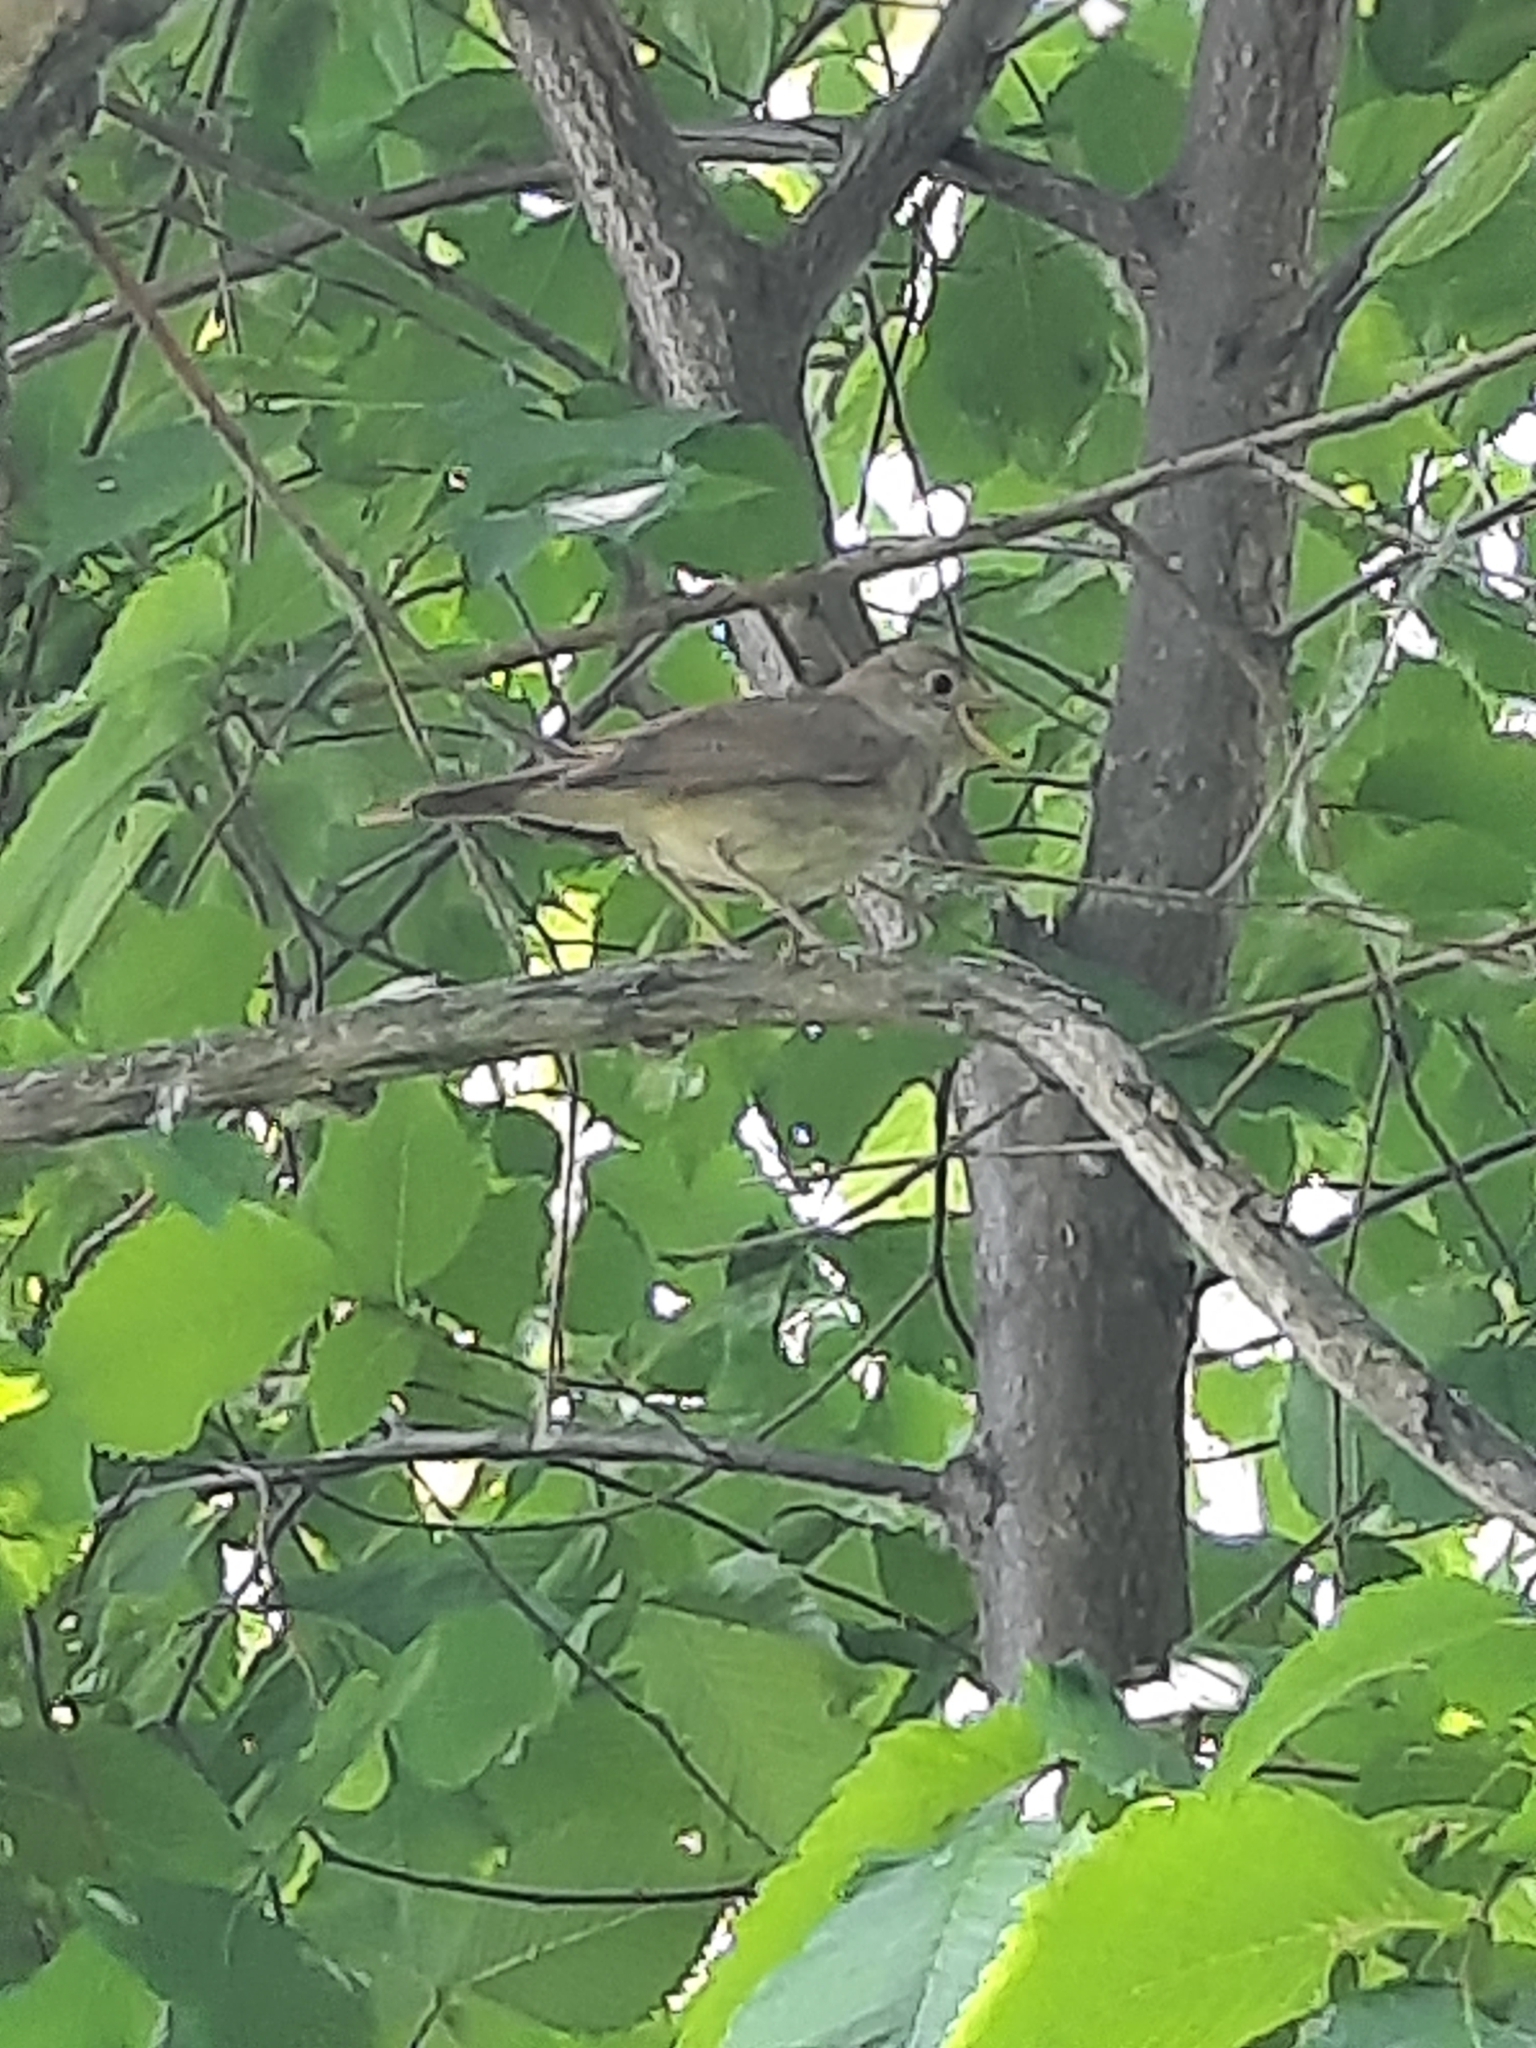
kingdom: Animalia
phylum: Chordata
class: Aves
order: Passeriformes
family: Muscicapidae
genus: Luscinia
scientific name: Luscinia luscinia
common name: Thrush nightingale
